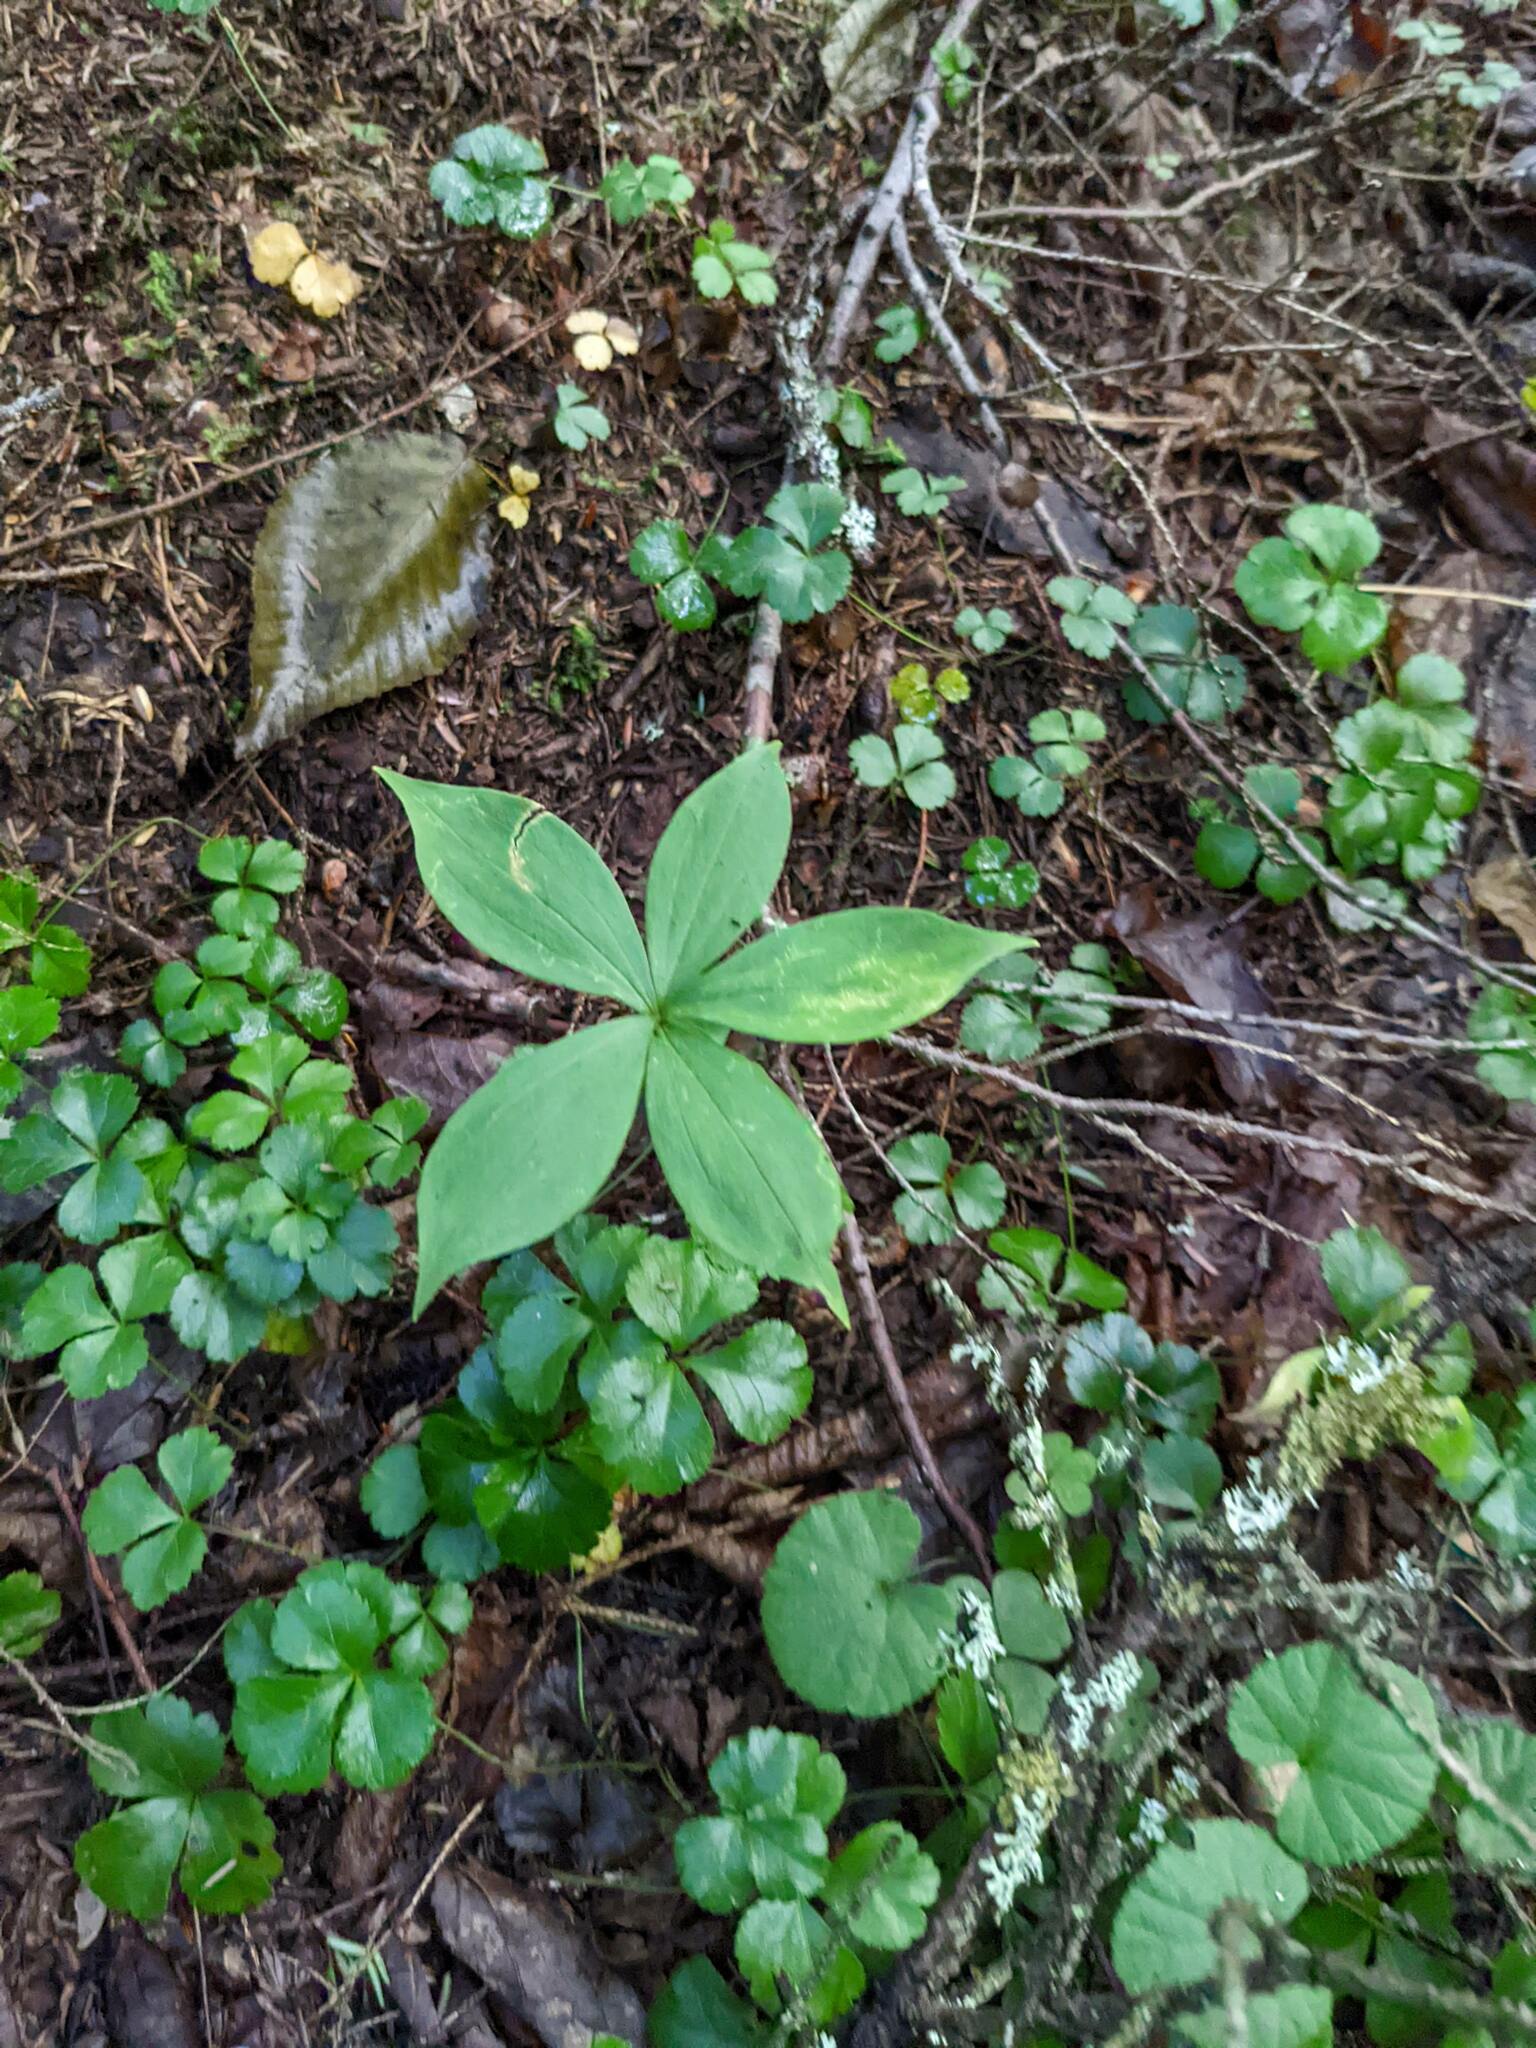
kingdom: Plantae
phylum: Tracheophyta
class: Liliopsida
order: Liliales
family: Liliaceae
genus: Medeola
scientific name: Medeola virginiana
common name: Indian cucumber-root
